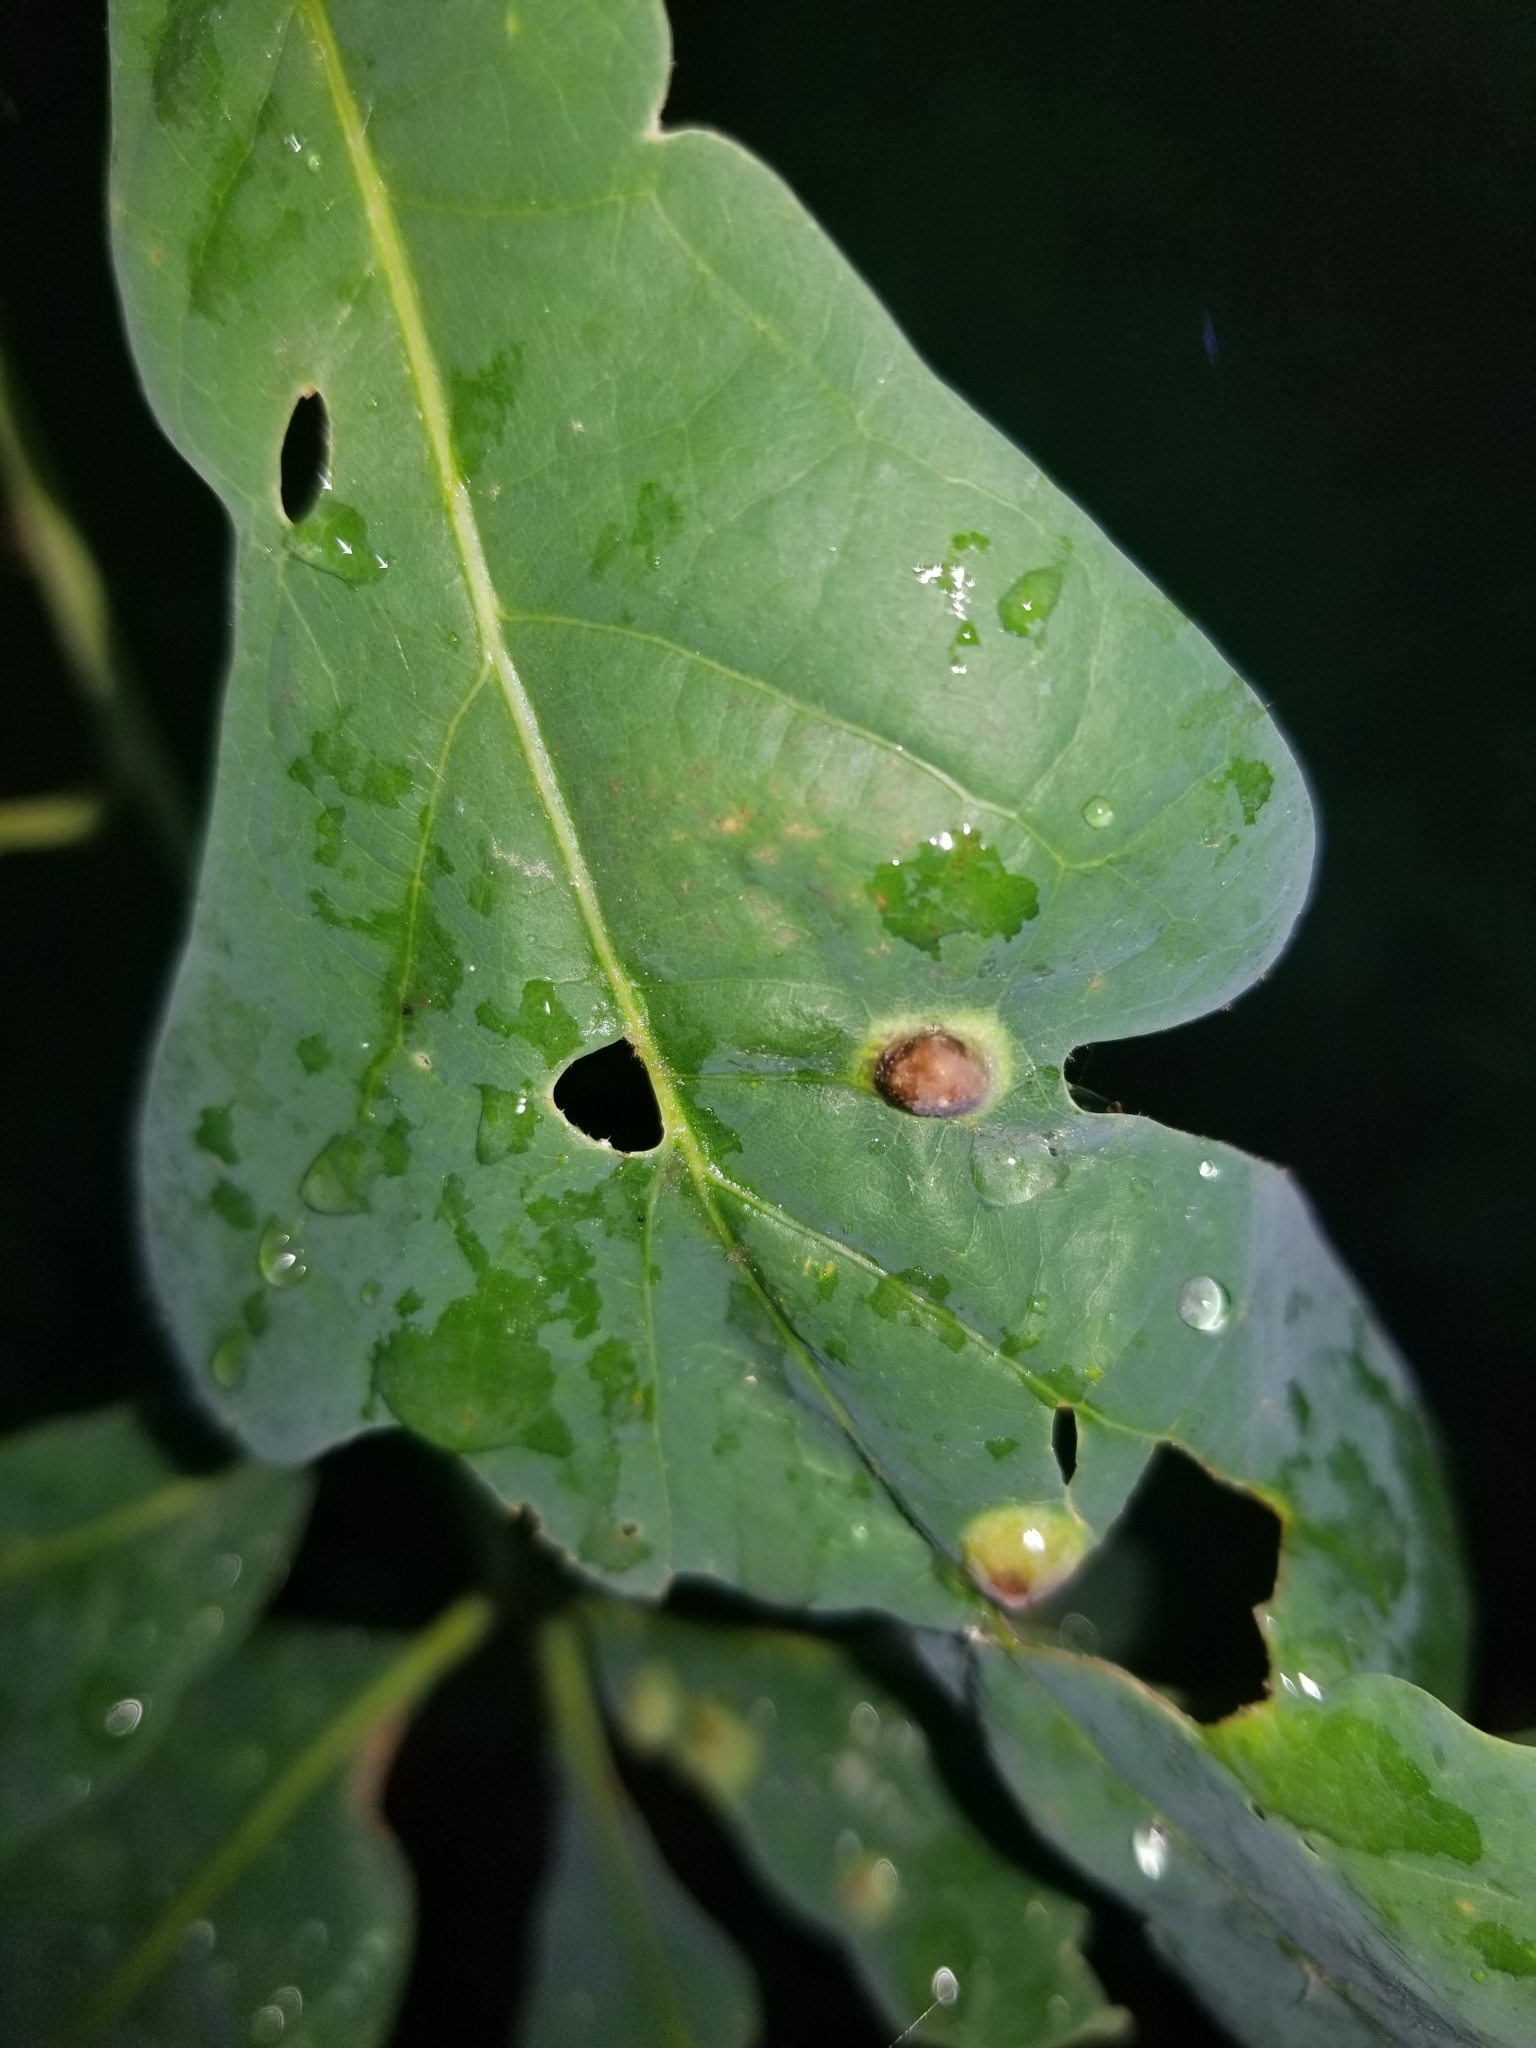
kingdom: Animalia
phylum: Arthropoda
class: Insecta
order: Hymenoptera
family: Cynipidae
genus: Callirhytis
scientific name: Callirhytis
